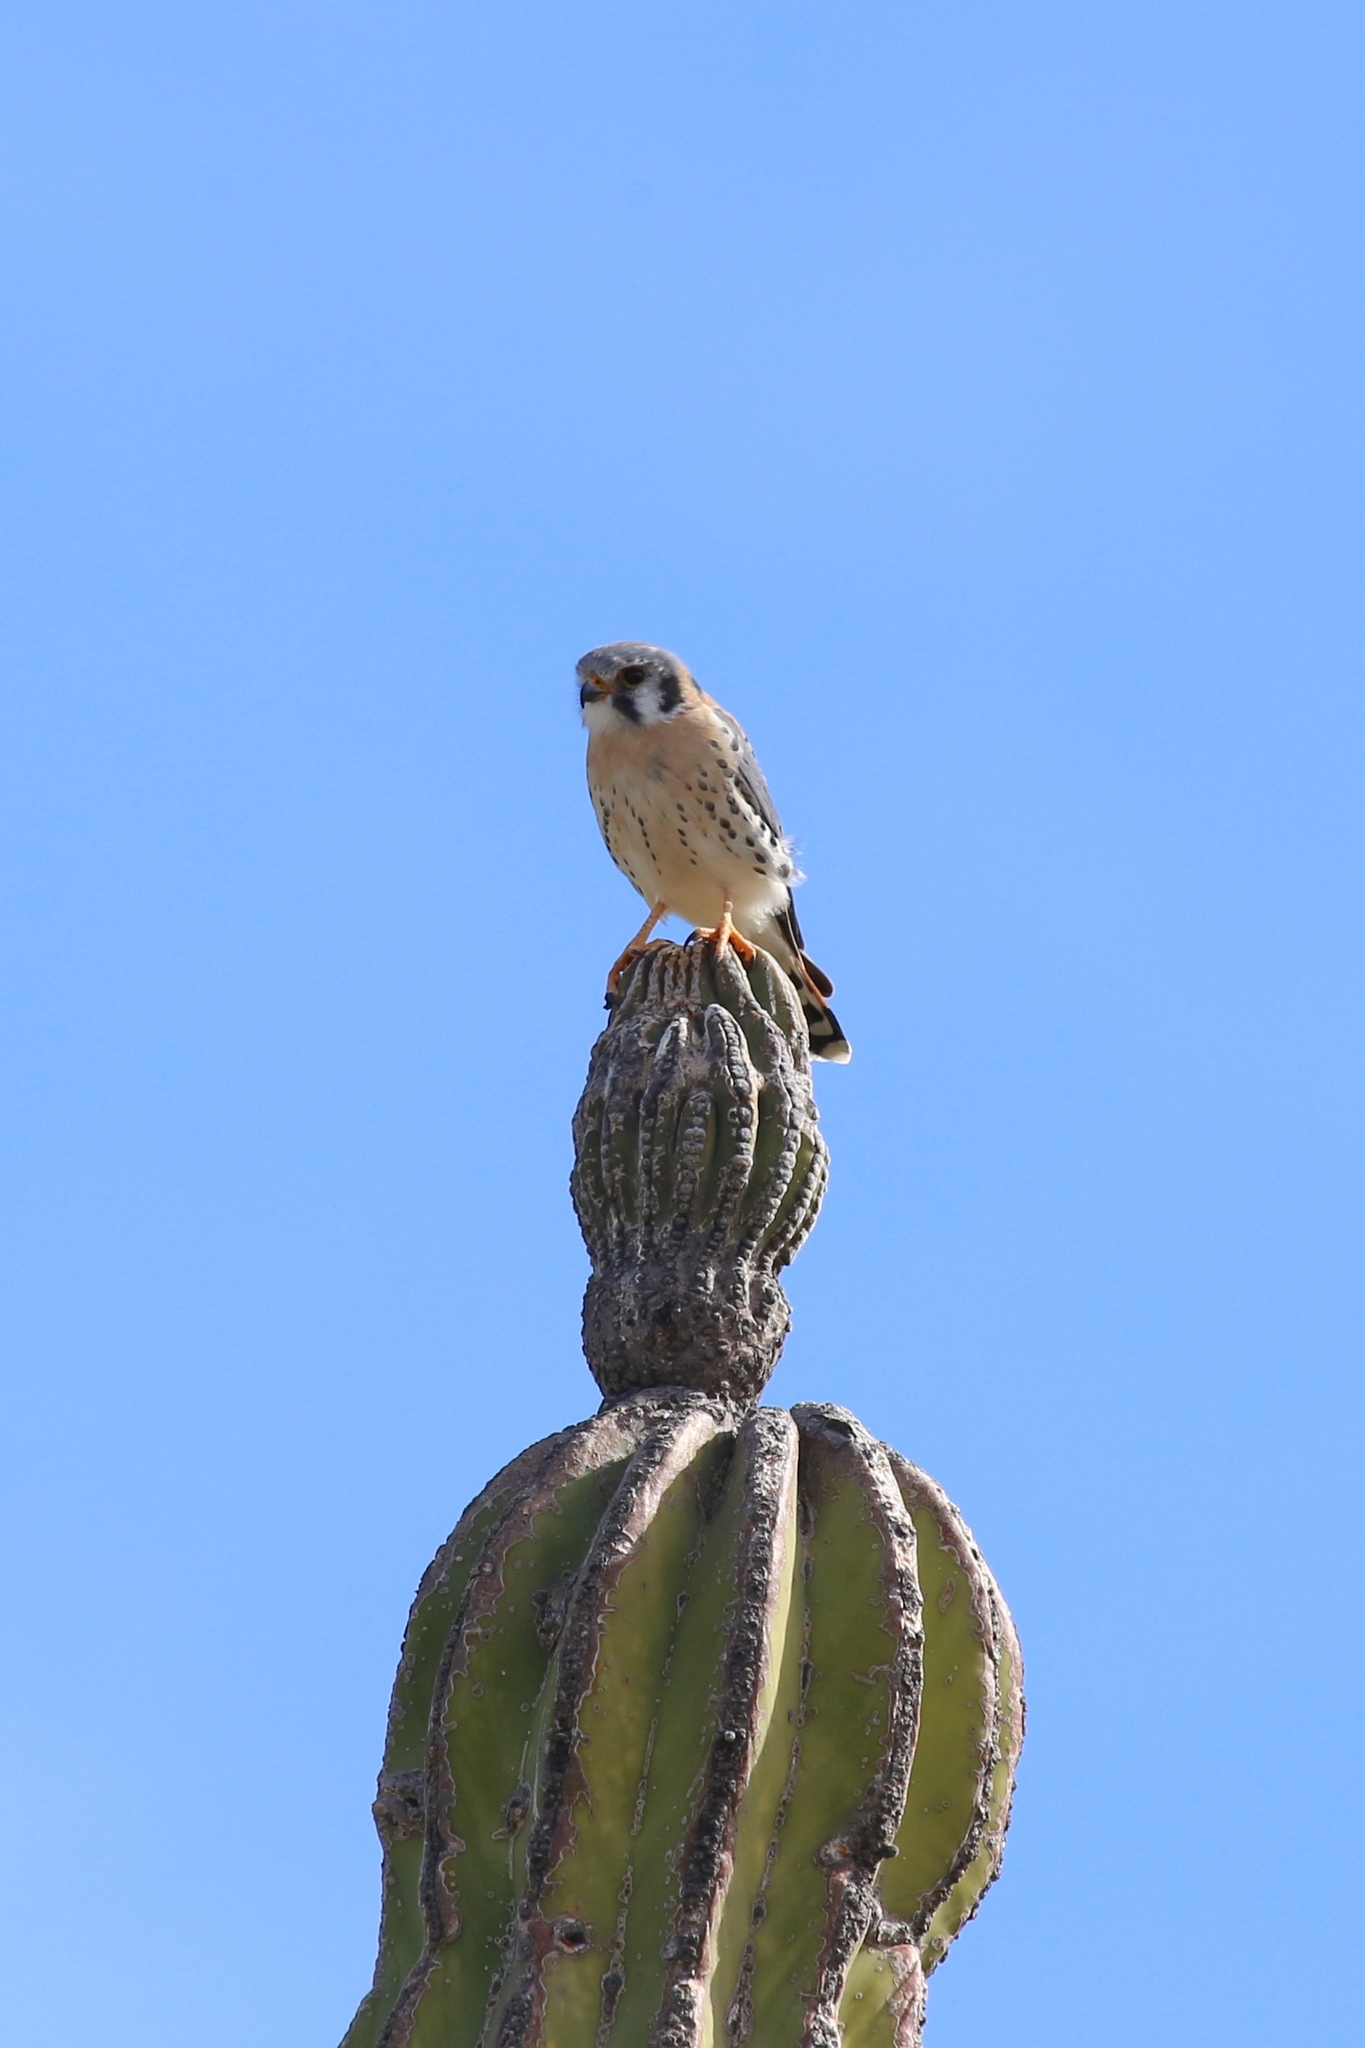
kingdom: Animalia
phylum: Chordata
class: Aves
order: Falconiformes
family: Falconidae
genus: Falco
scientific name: Falco sparverius
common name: American kestrel
